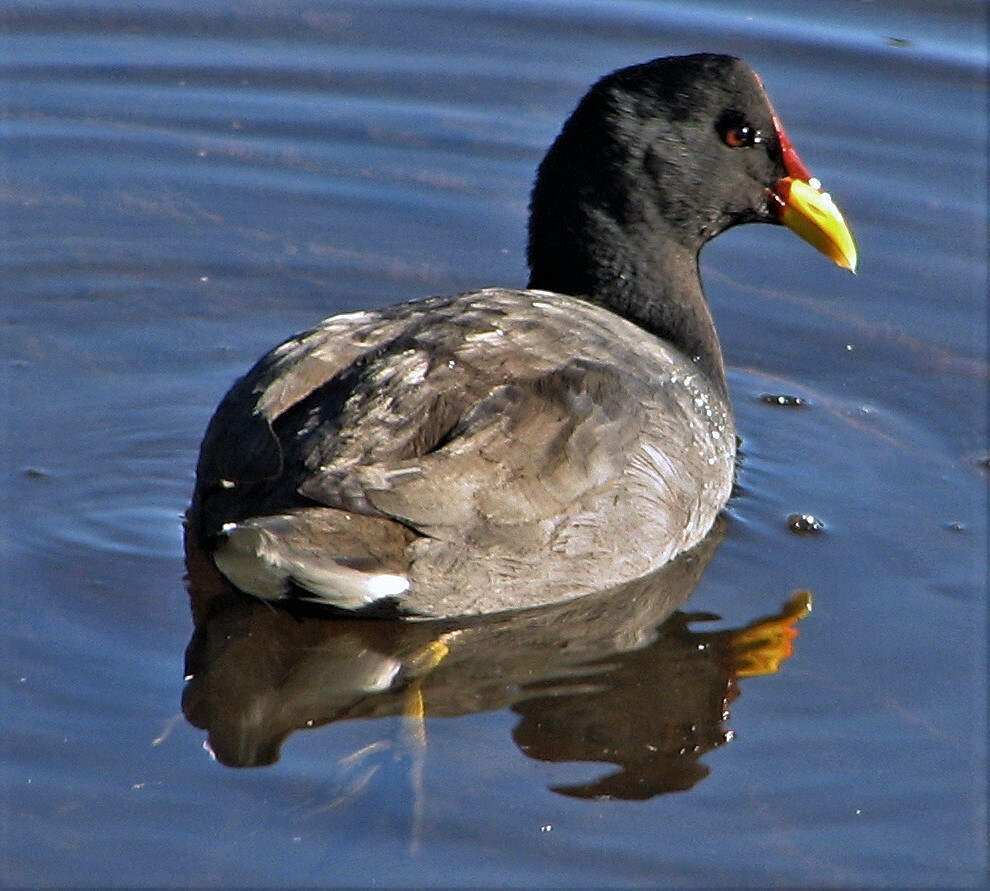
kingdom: Animalia
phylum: Chordata
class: Aves
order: Gruiformes
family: Rallidae
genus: Fulica
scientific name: Fulica rufifrons
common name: Red-fronted coot
